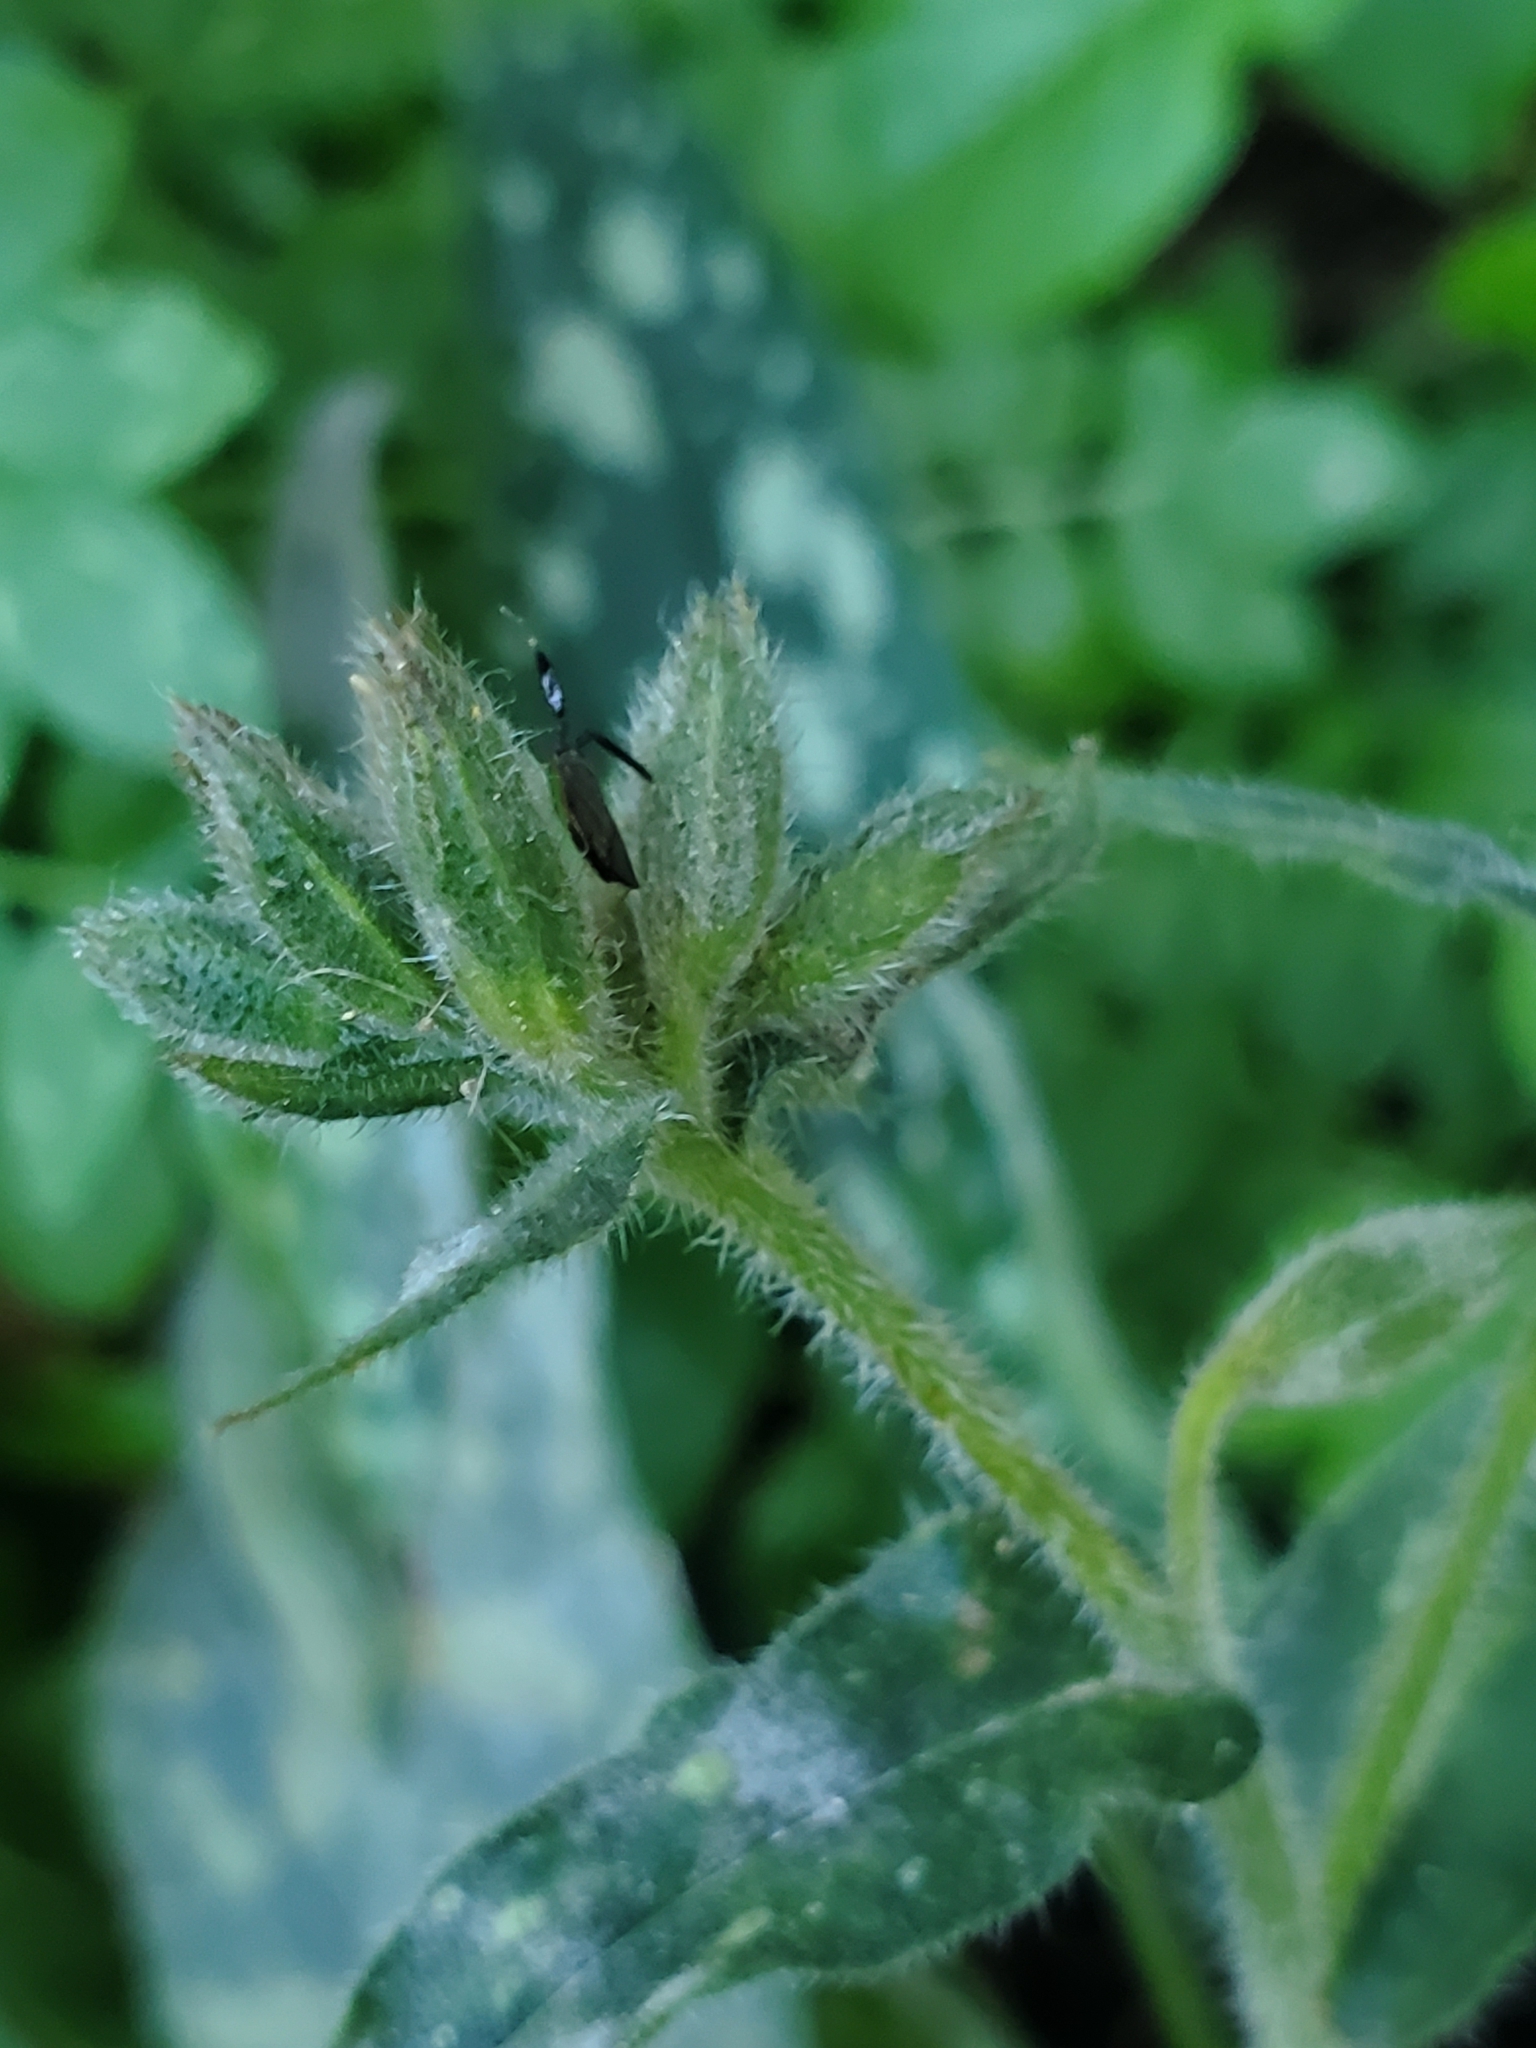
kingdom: Animalia
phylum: Arthropoda
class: Insecta
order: Hemiptera
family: Miridae
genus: Heterotoma
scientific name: Heterotoma planicornis
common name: Plant bug
